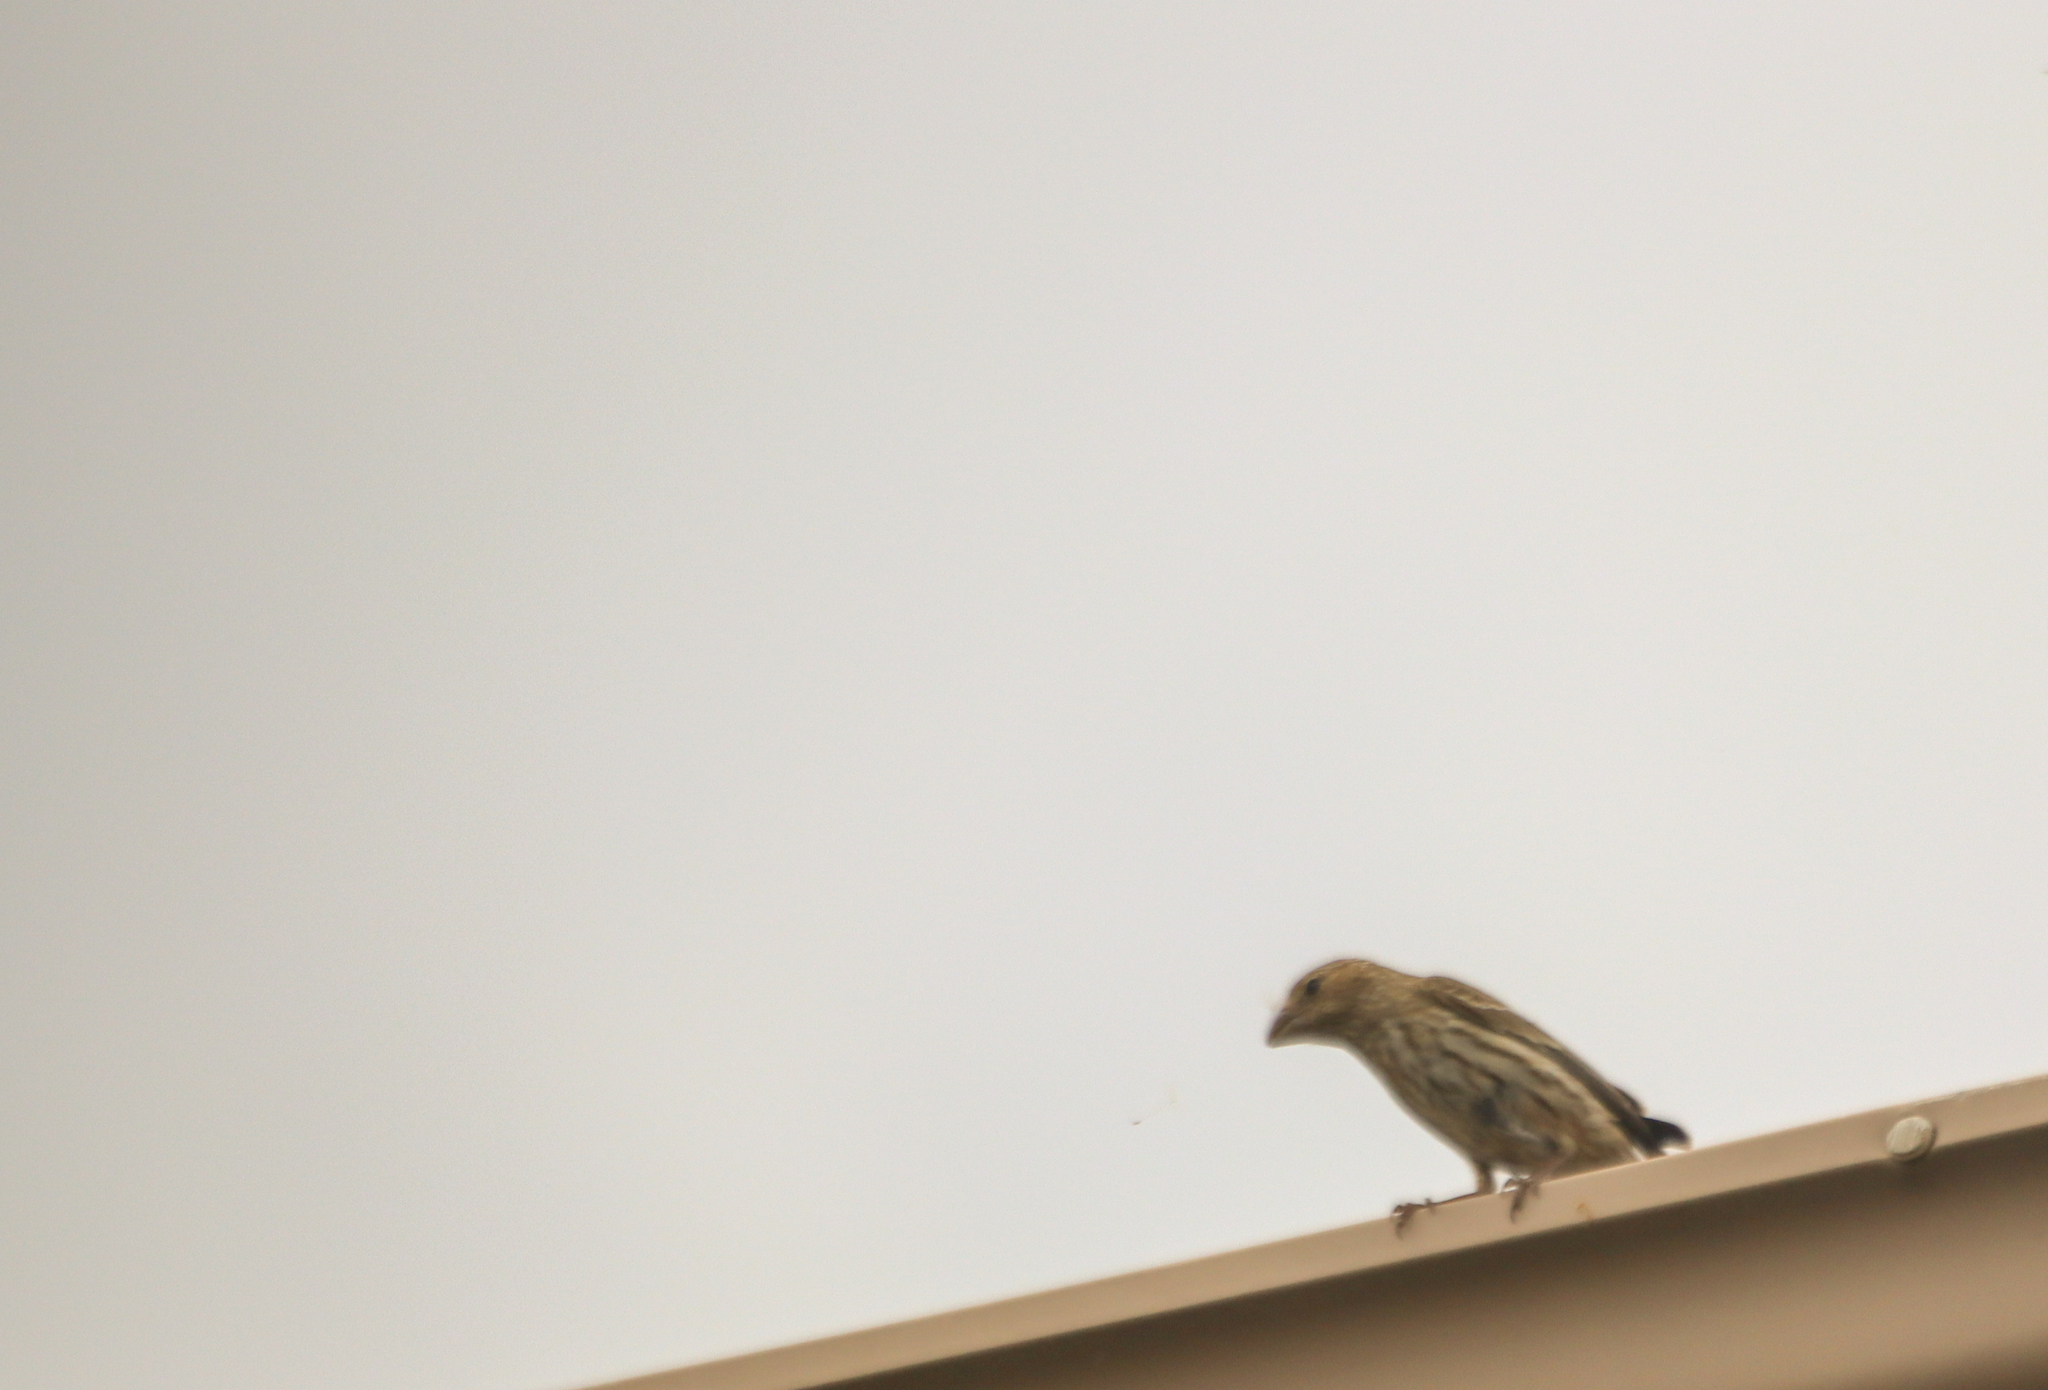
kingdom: Animalia
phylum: Chordata
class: Aves
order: Passeriformes
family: Fringillidae
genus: Haemorhous
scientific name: Haemorhous mexicanus
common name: House finch
